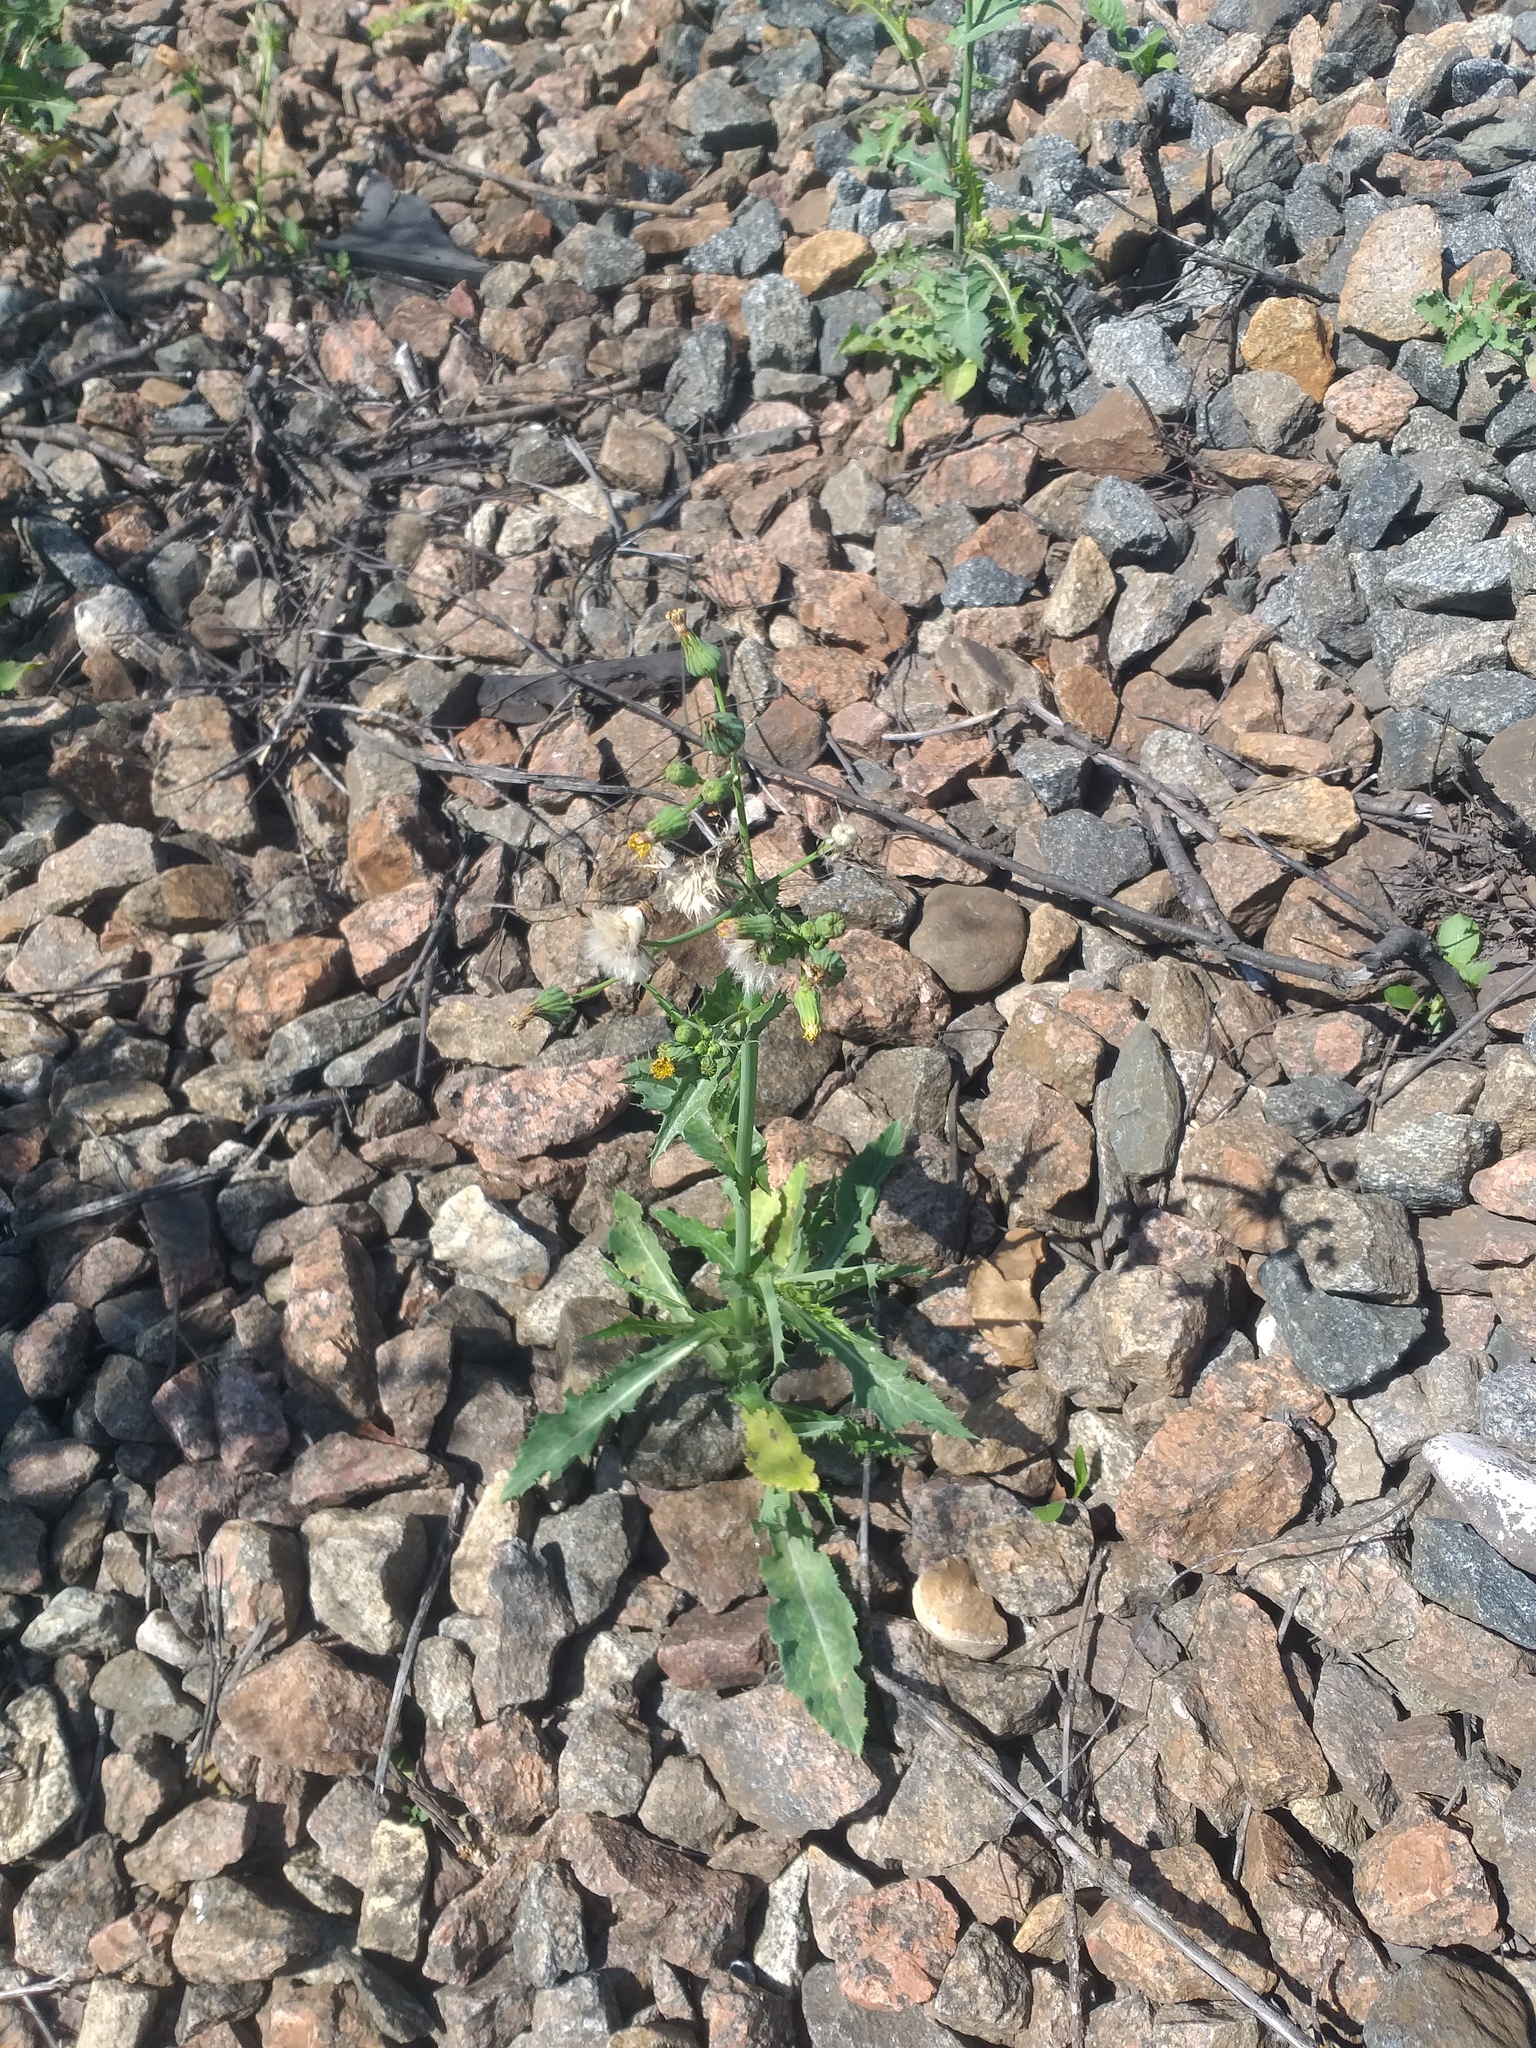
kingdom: Plantae
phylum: Tracheophyta
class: Magnoliopsida
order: Asterales
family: Asteraceae
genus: Sonchus
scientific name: Sonchus asper
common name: Prickly sow-thistle
